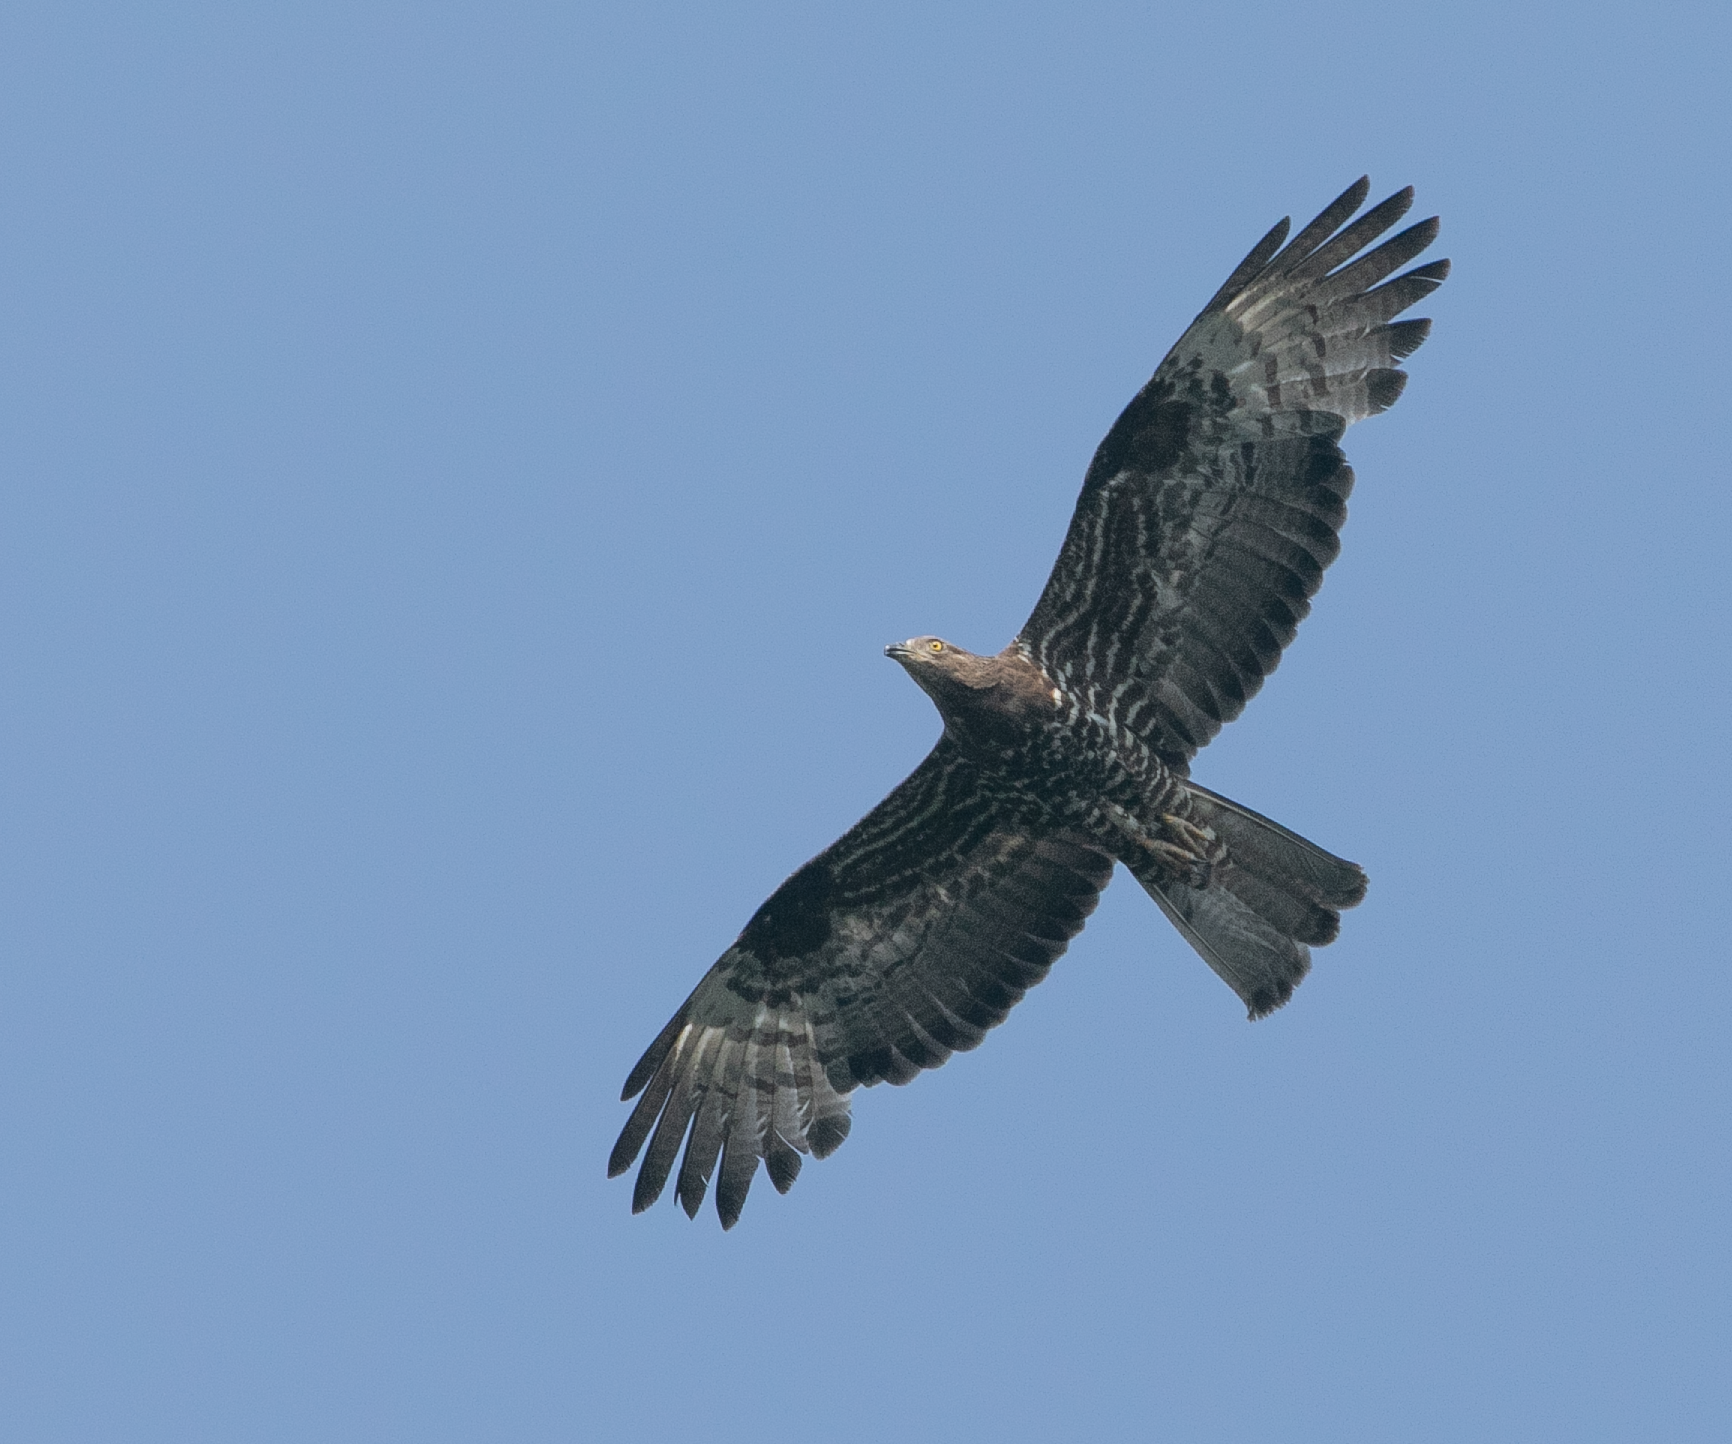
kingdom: Animalia
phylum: Chordata
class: Aves
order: Accipitriformes
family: Accipitridae
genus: Pernis
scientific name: Pernis apivorus
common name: European honey buzzard
